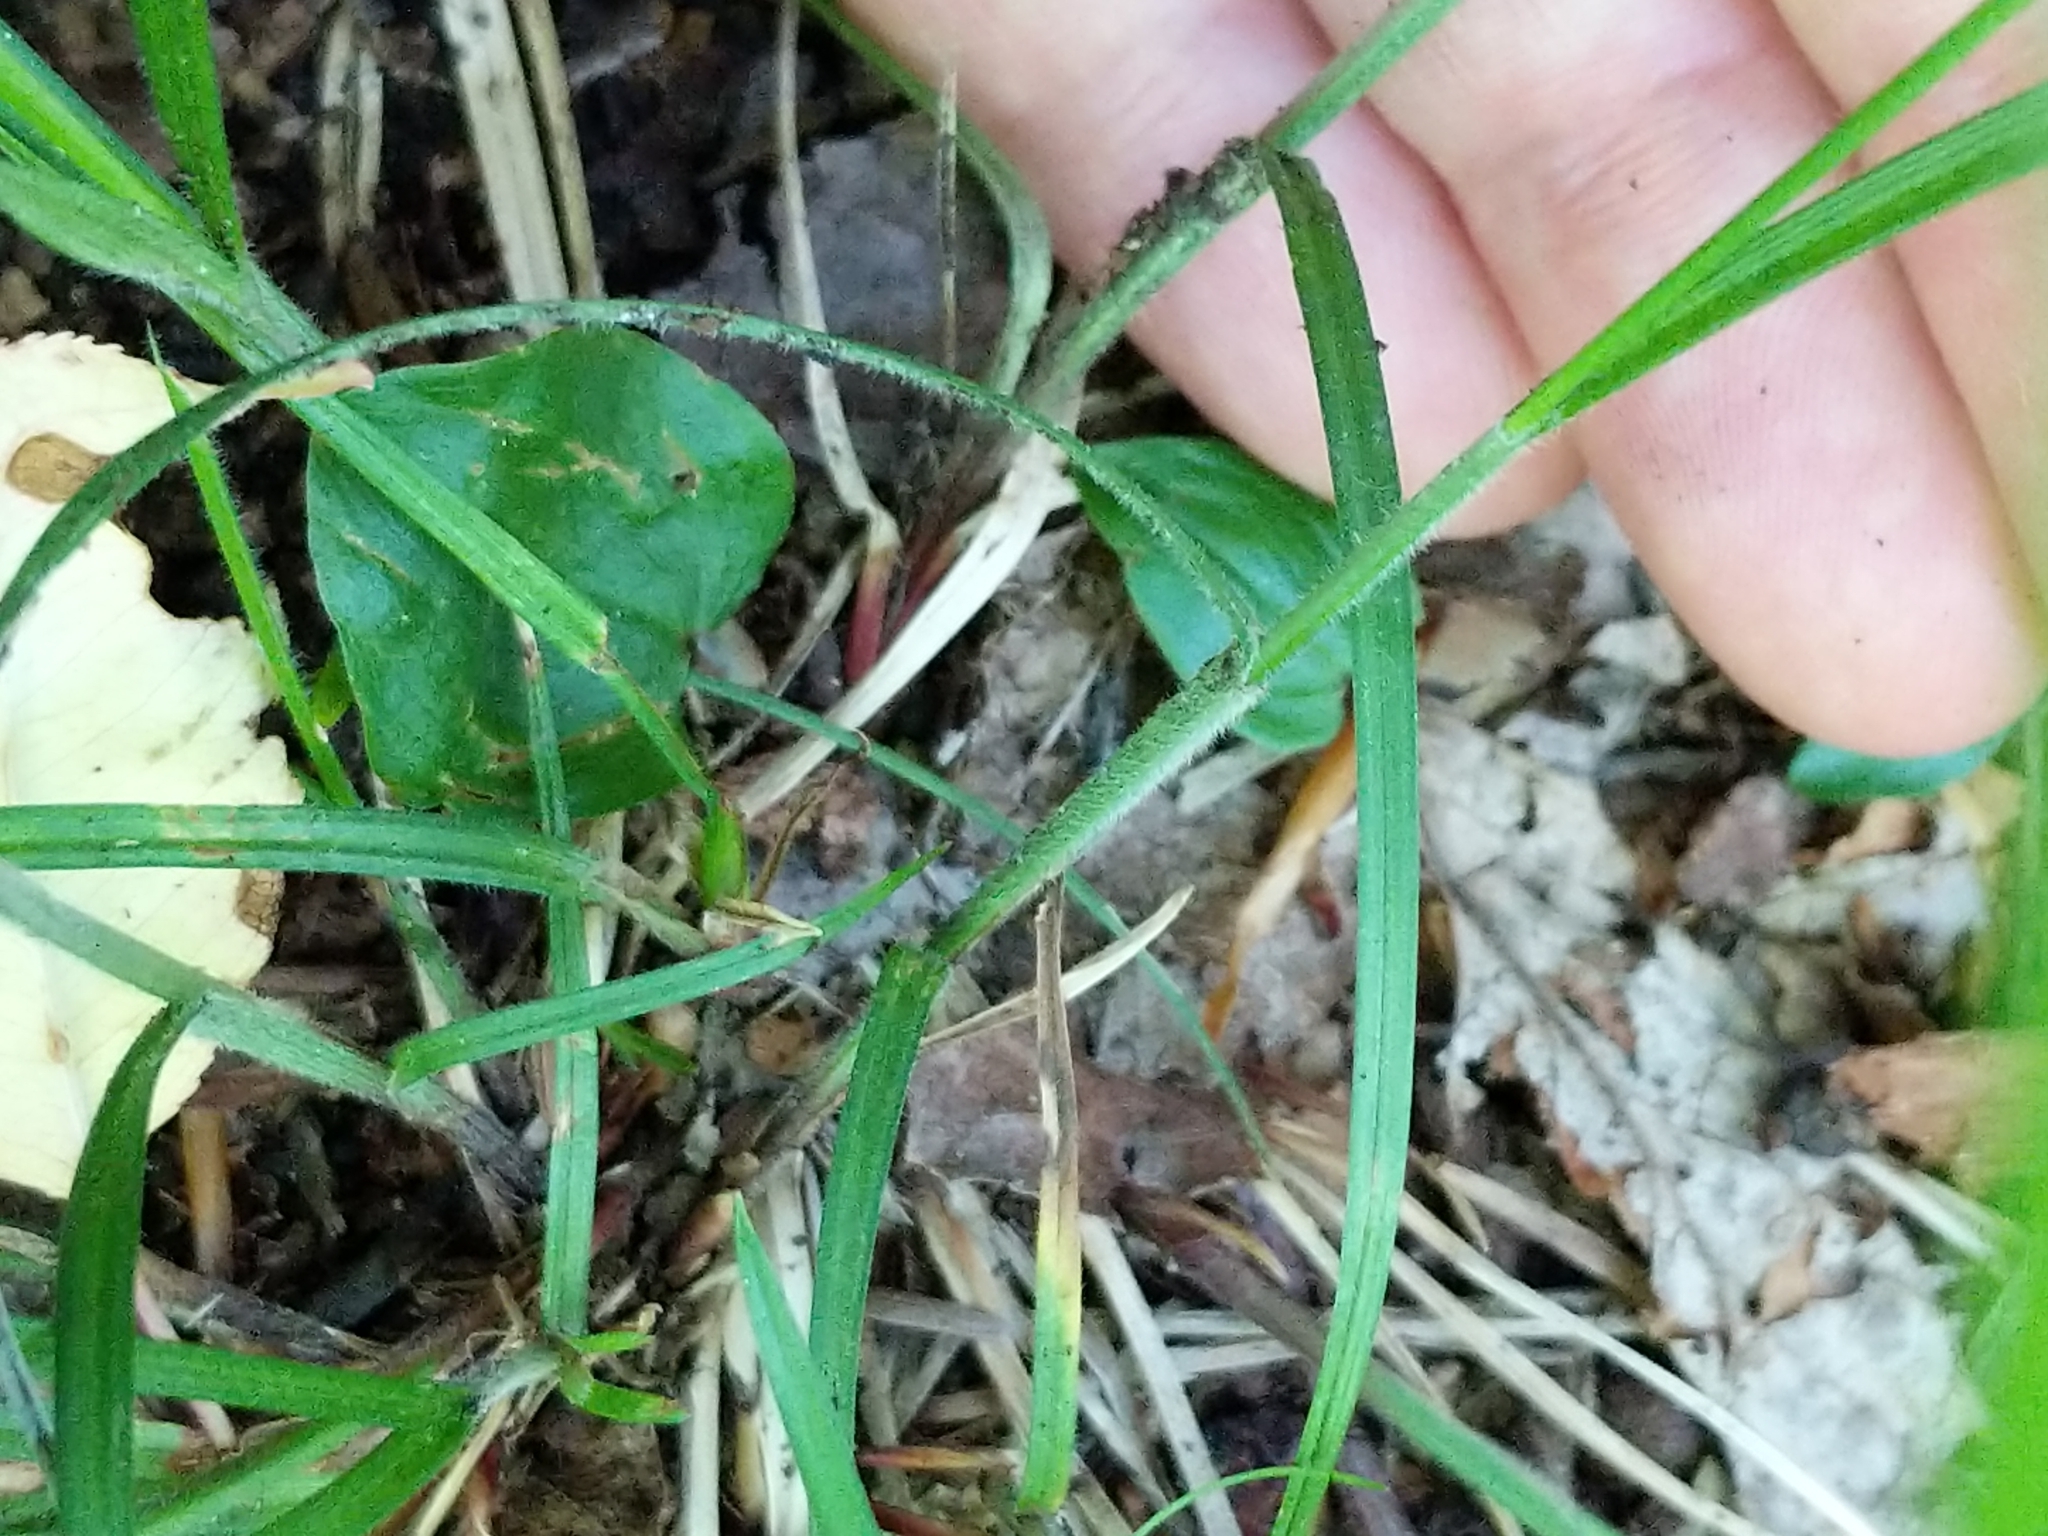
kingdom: Plantae
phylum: Tracheophyta
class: Liliopsida
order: Poales
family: Cyperaceae
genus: Carex
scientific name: Carex swanii
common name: Downy green sedge
